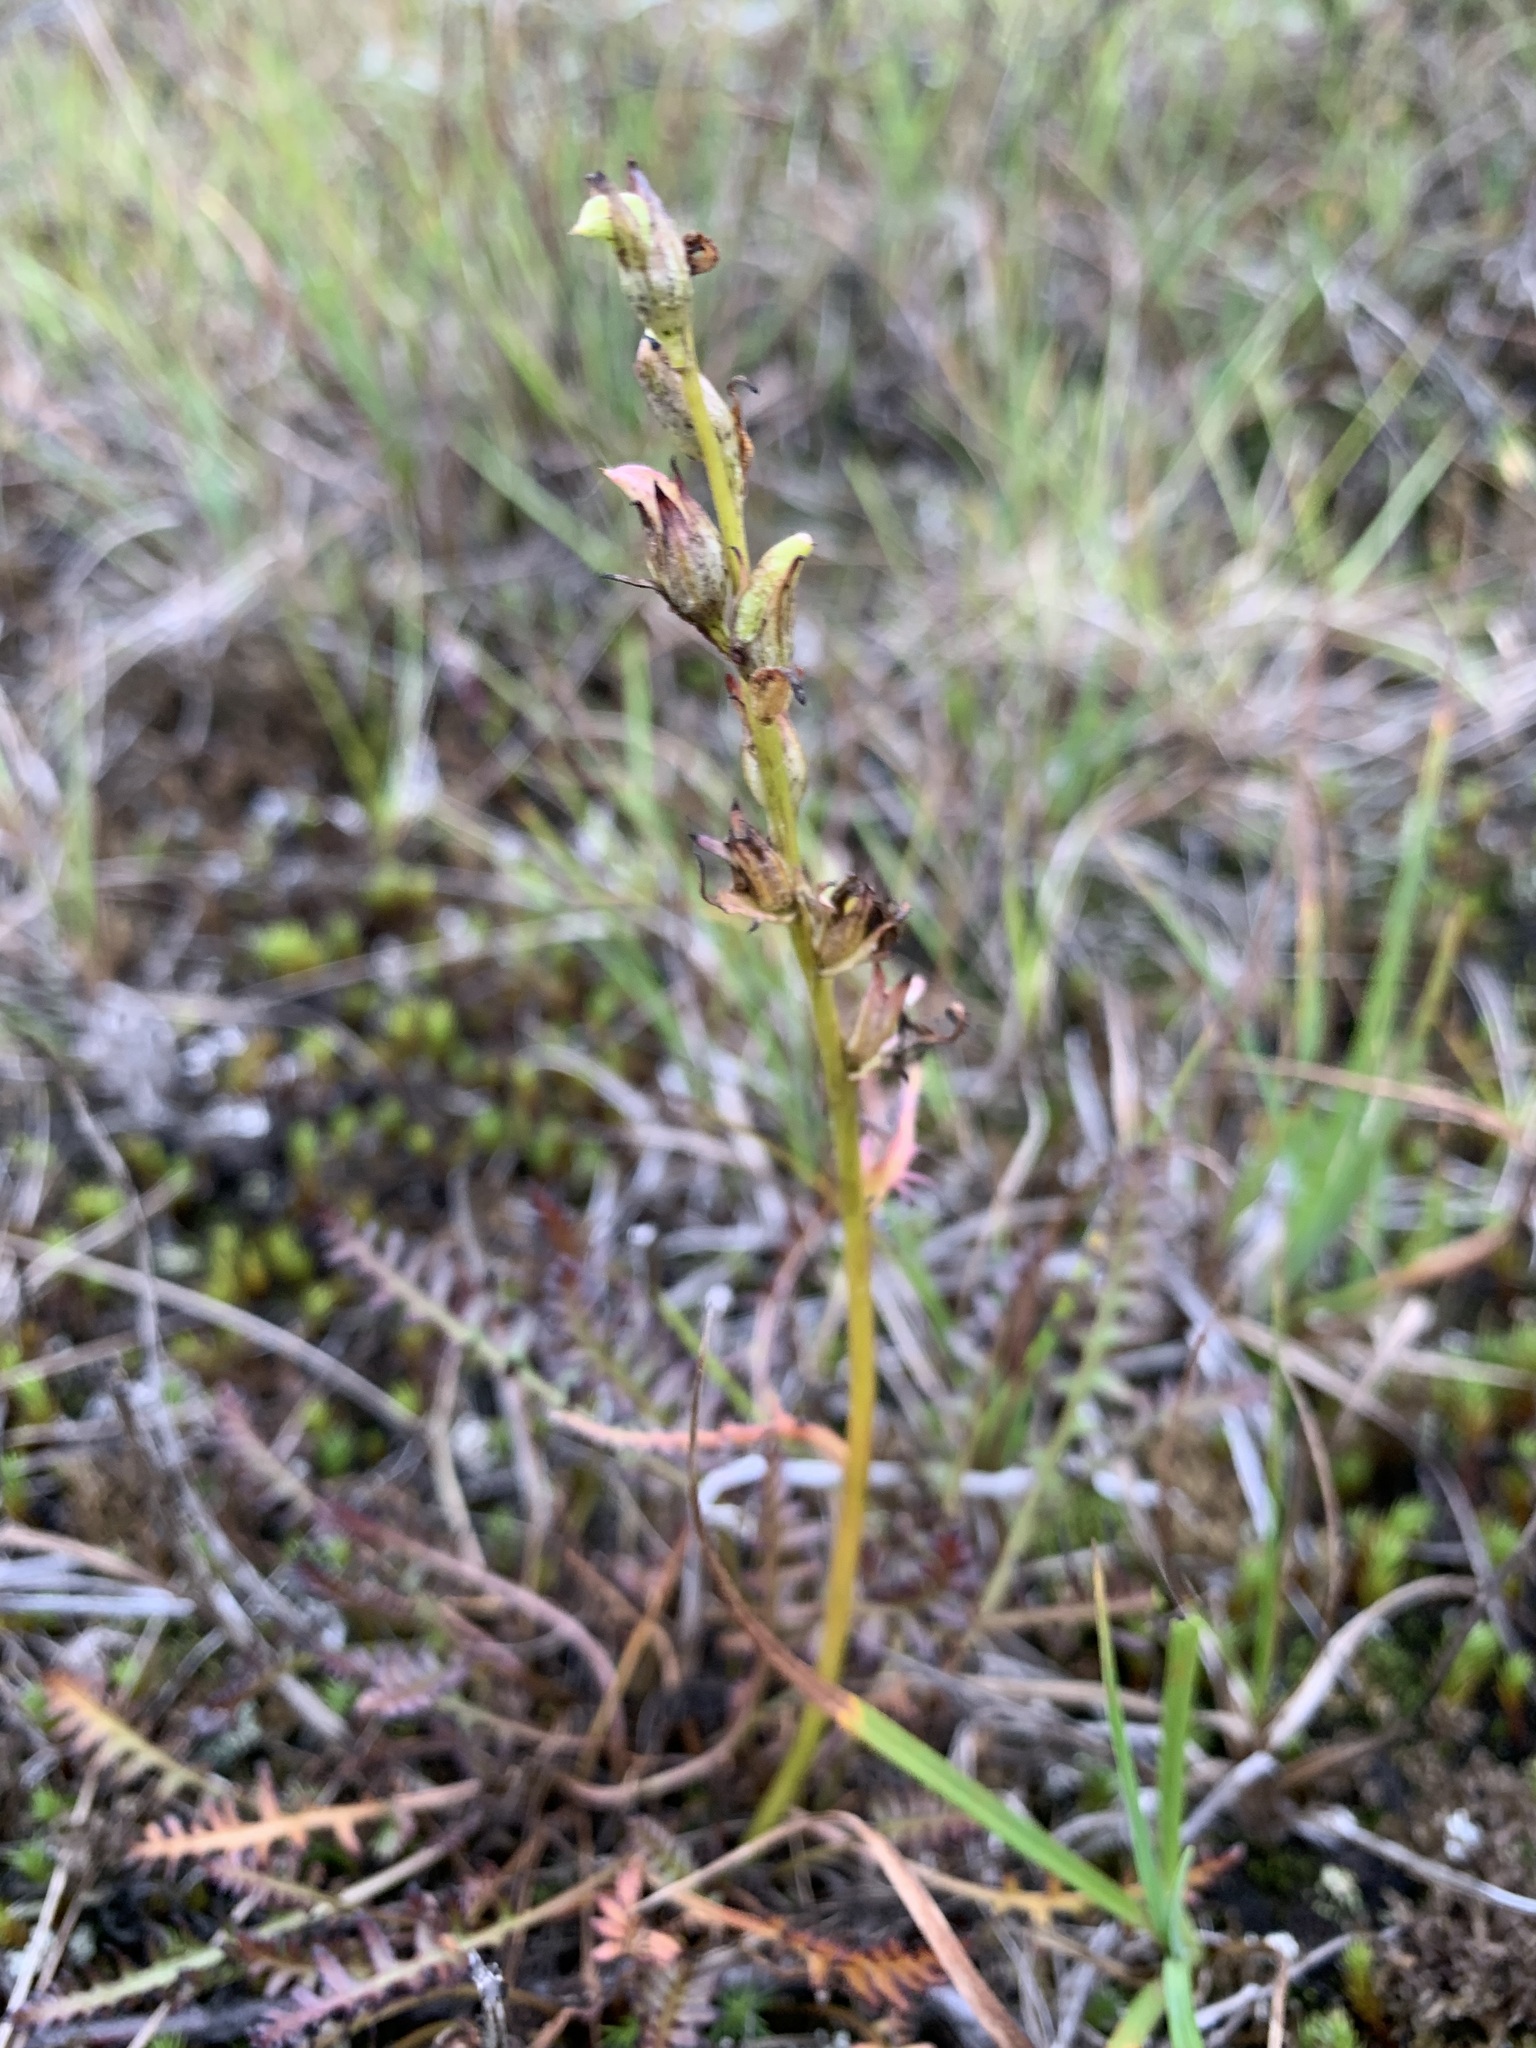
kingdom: Plantae
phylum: Tracheophyta
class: Magnoliopsida
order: Lamiales
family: Orobanchaceae
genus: Pedicularis
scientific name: Pedicularis sudetica
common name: Sudeten lousewort
